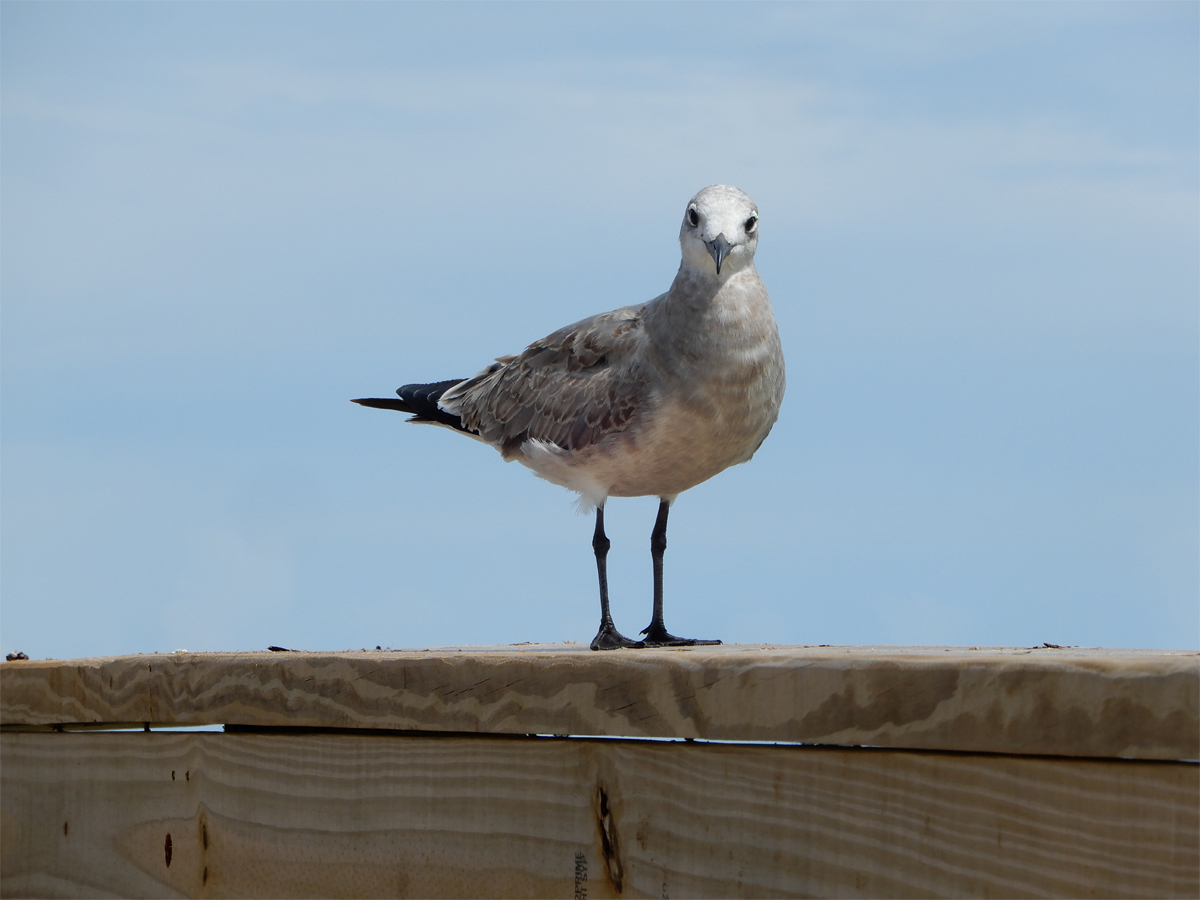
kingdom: Animalia
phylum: Chordata
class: Aves
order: Charadriiformes
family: Laridae
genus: Leucophaeus
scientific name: Leucophaeus atricilla
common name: Laughing gull
